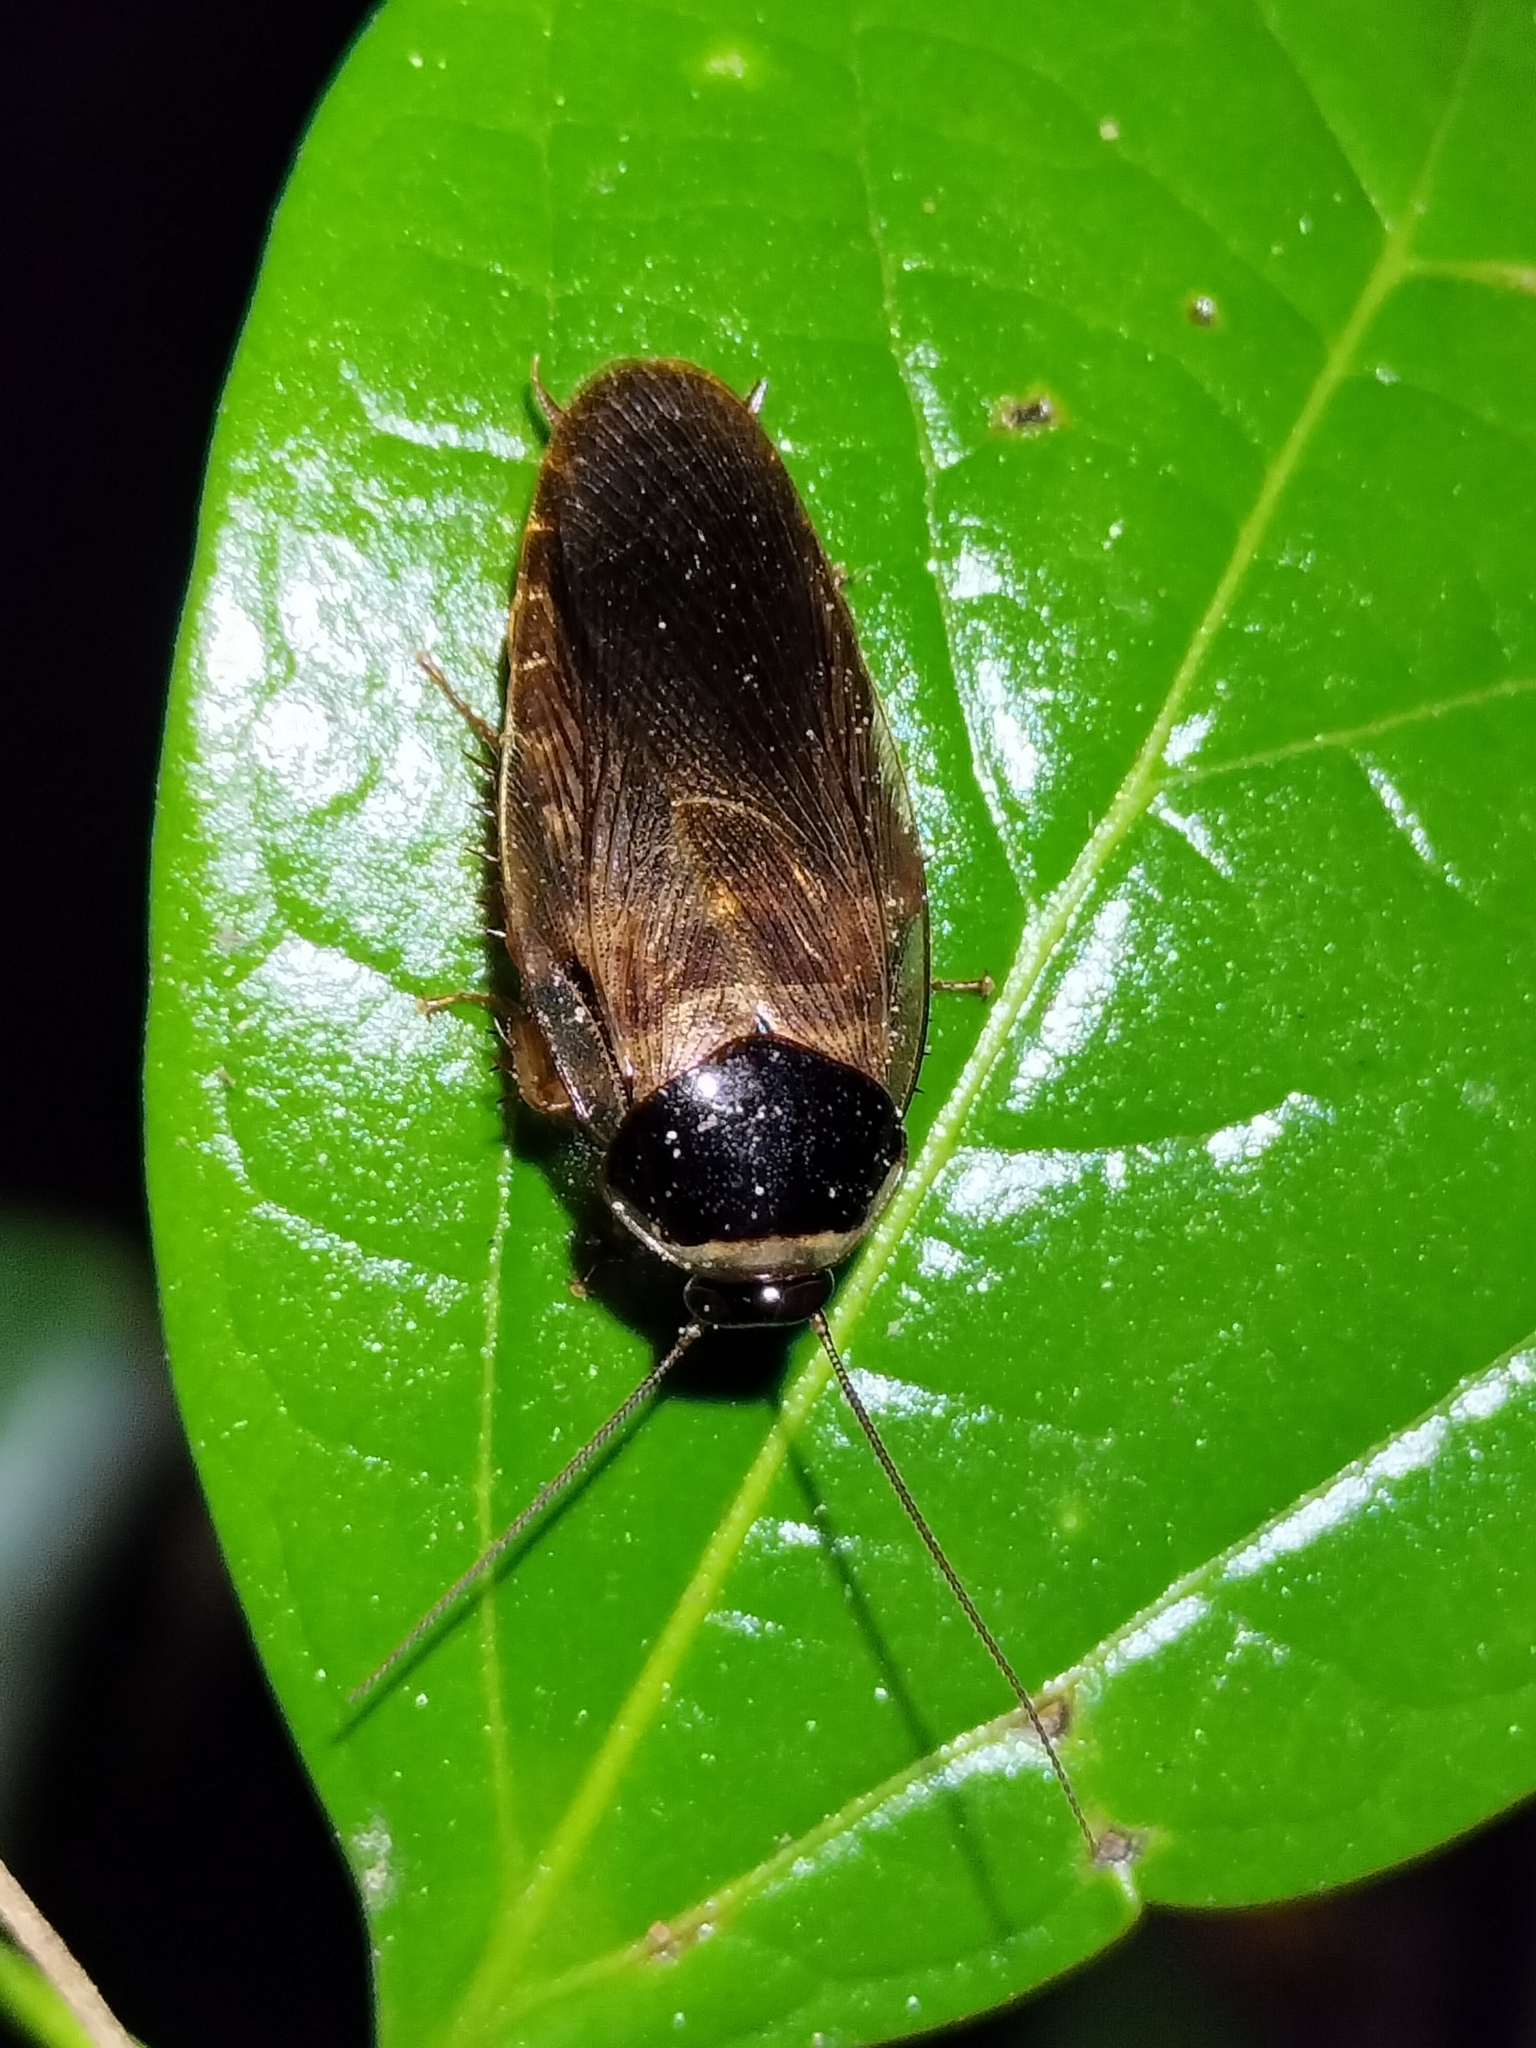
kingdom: Animalia
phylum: Arthropoda
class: Insecta
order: Blattodea
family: Blaberidae
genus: Pycnoscelus
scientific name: Pycnoscelus indicus
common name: Burrowing cockroach
